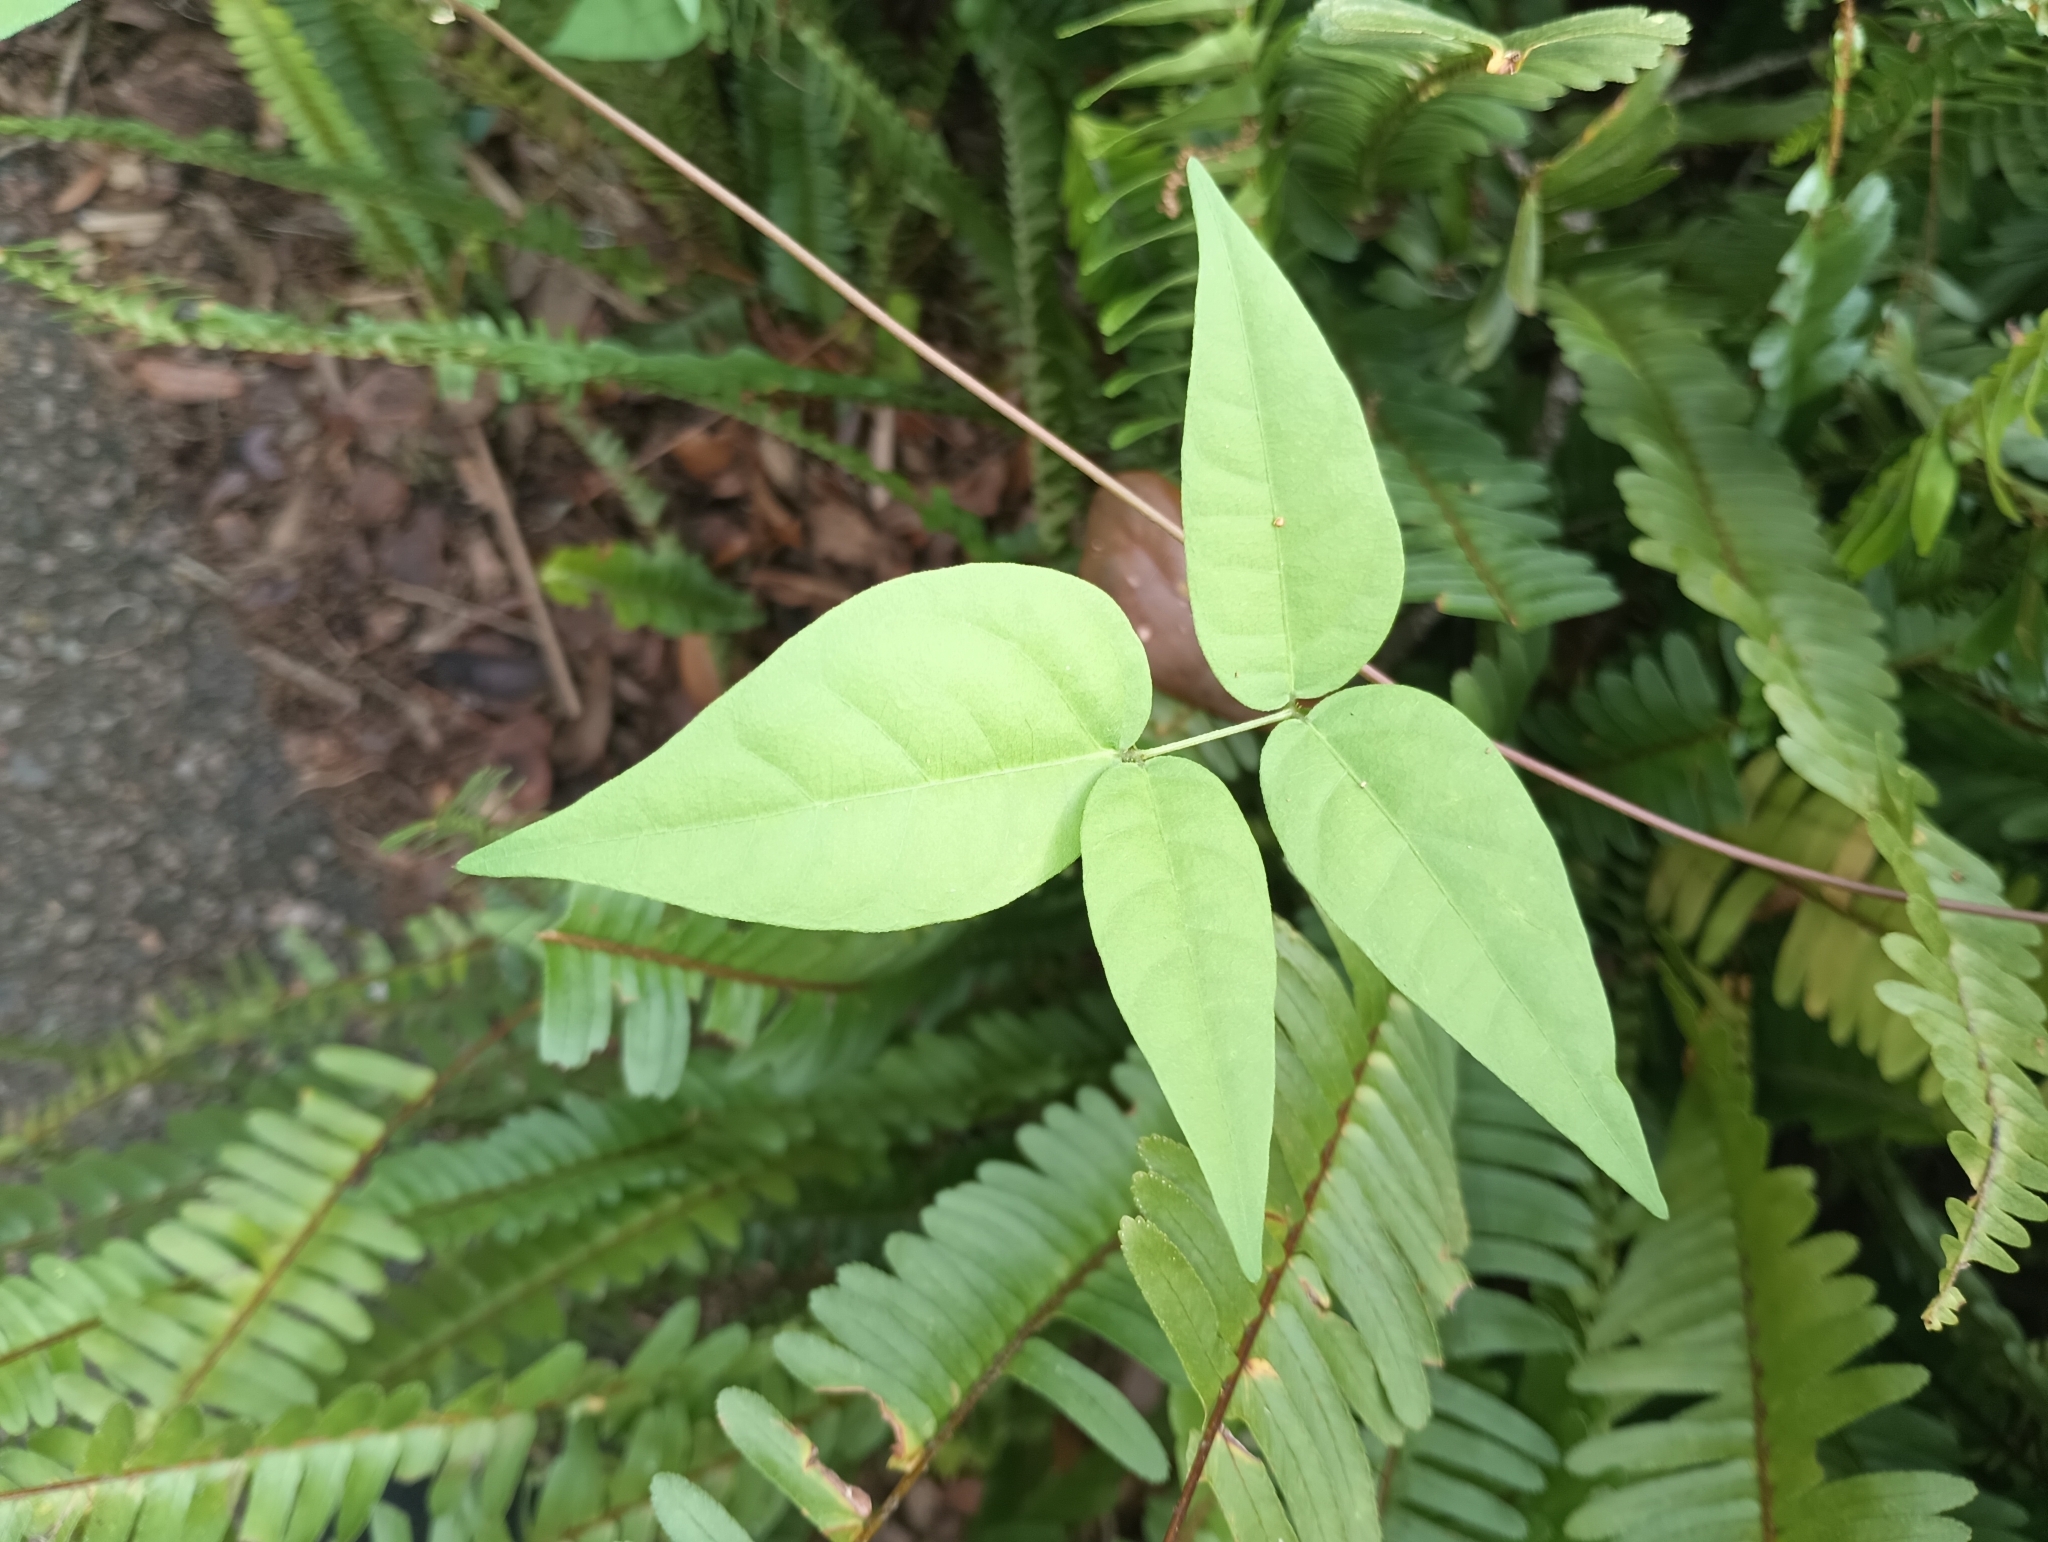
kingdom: Plantae
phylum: Tracheophyta
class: Magnoliopsida
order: Fabales
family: Fabaceae
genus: Apios
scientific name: Apios americana
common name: American potato-bean
